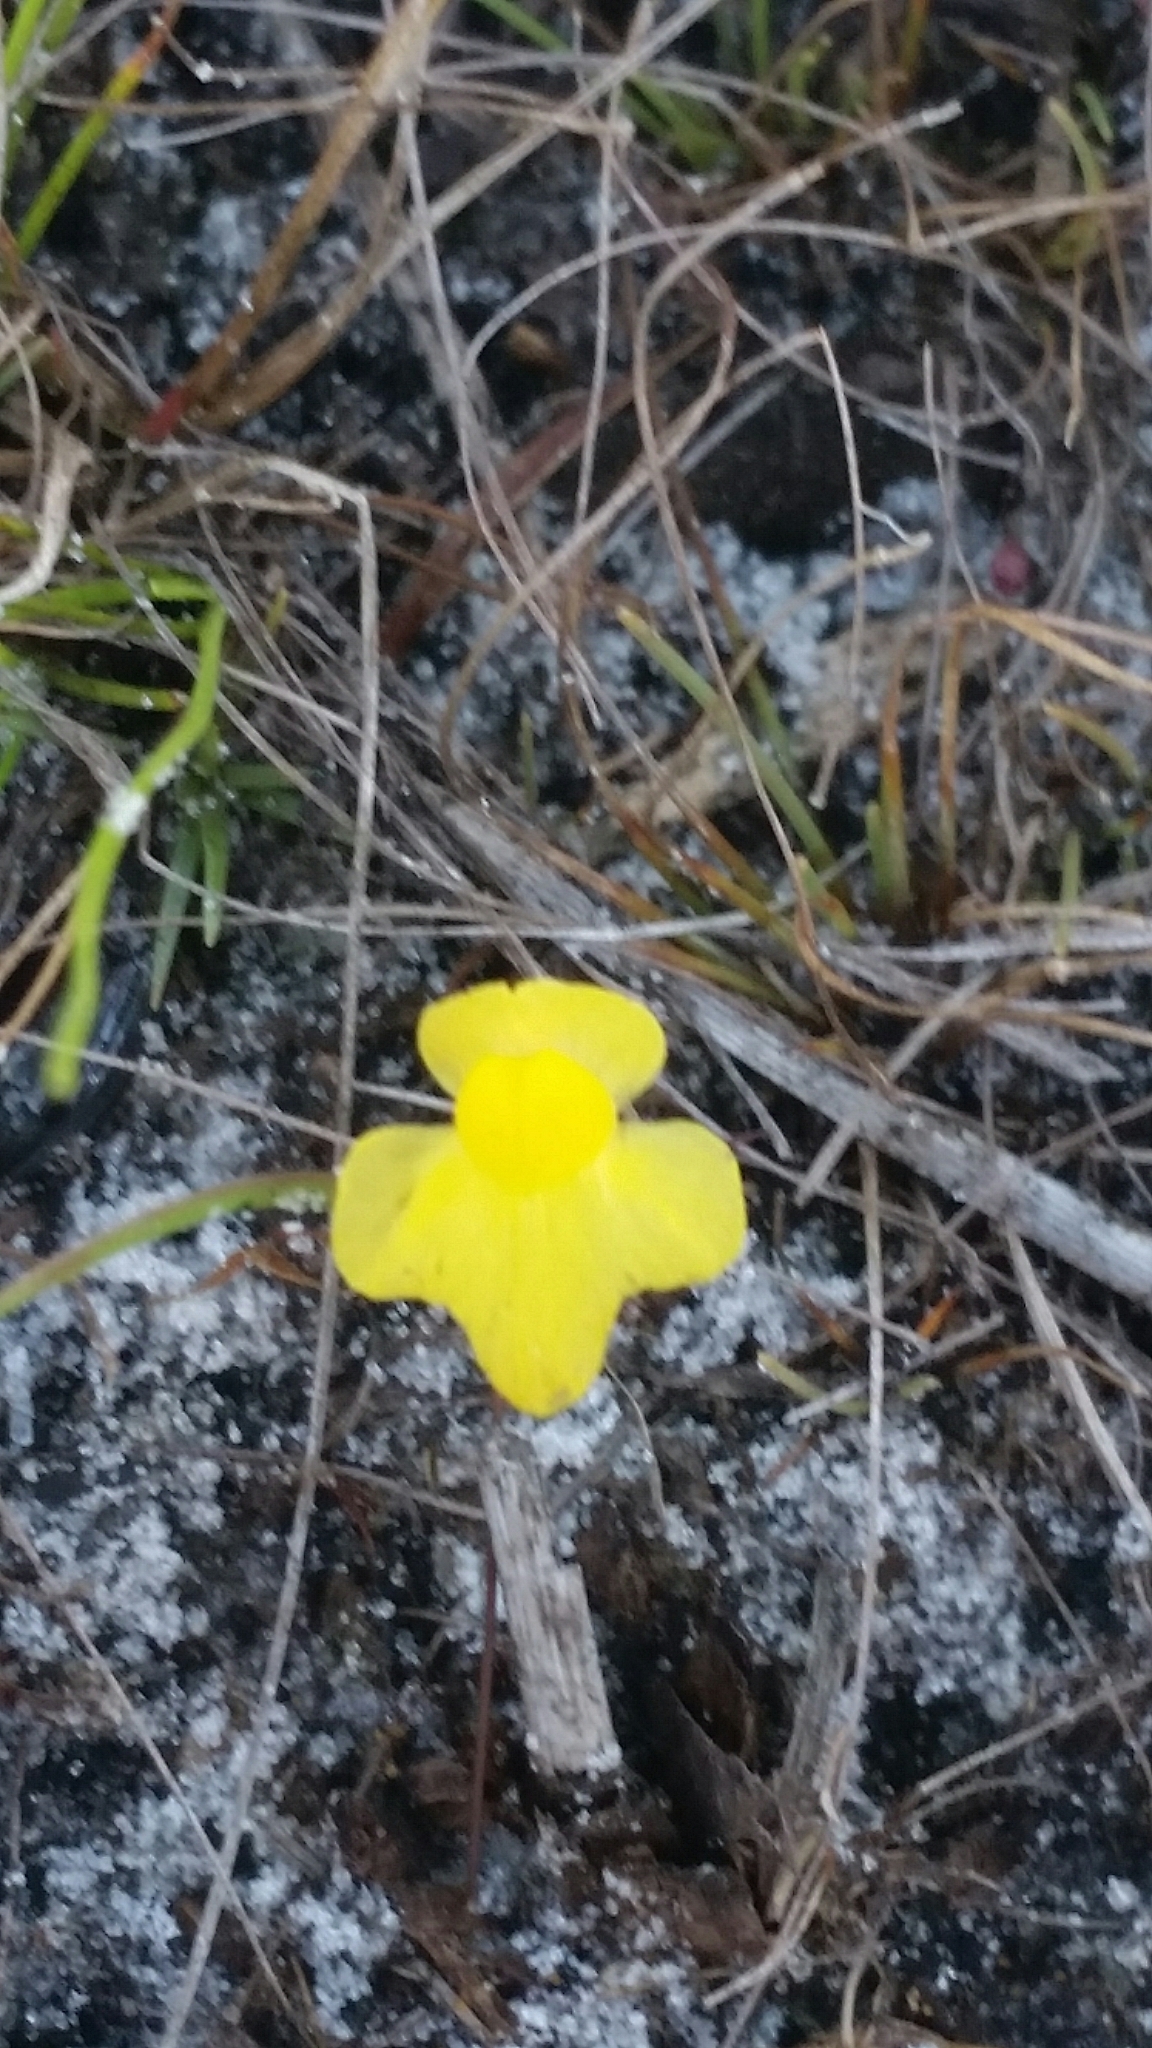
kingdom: Plantae
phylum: Tracheophyta
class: Magnoliopsida
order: Lamiales
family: Lentibulariaceae
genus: Utricularia
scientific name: Utricularia subulata
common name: Tiny bladderwort
